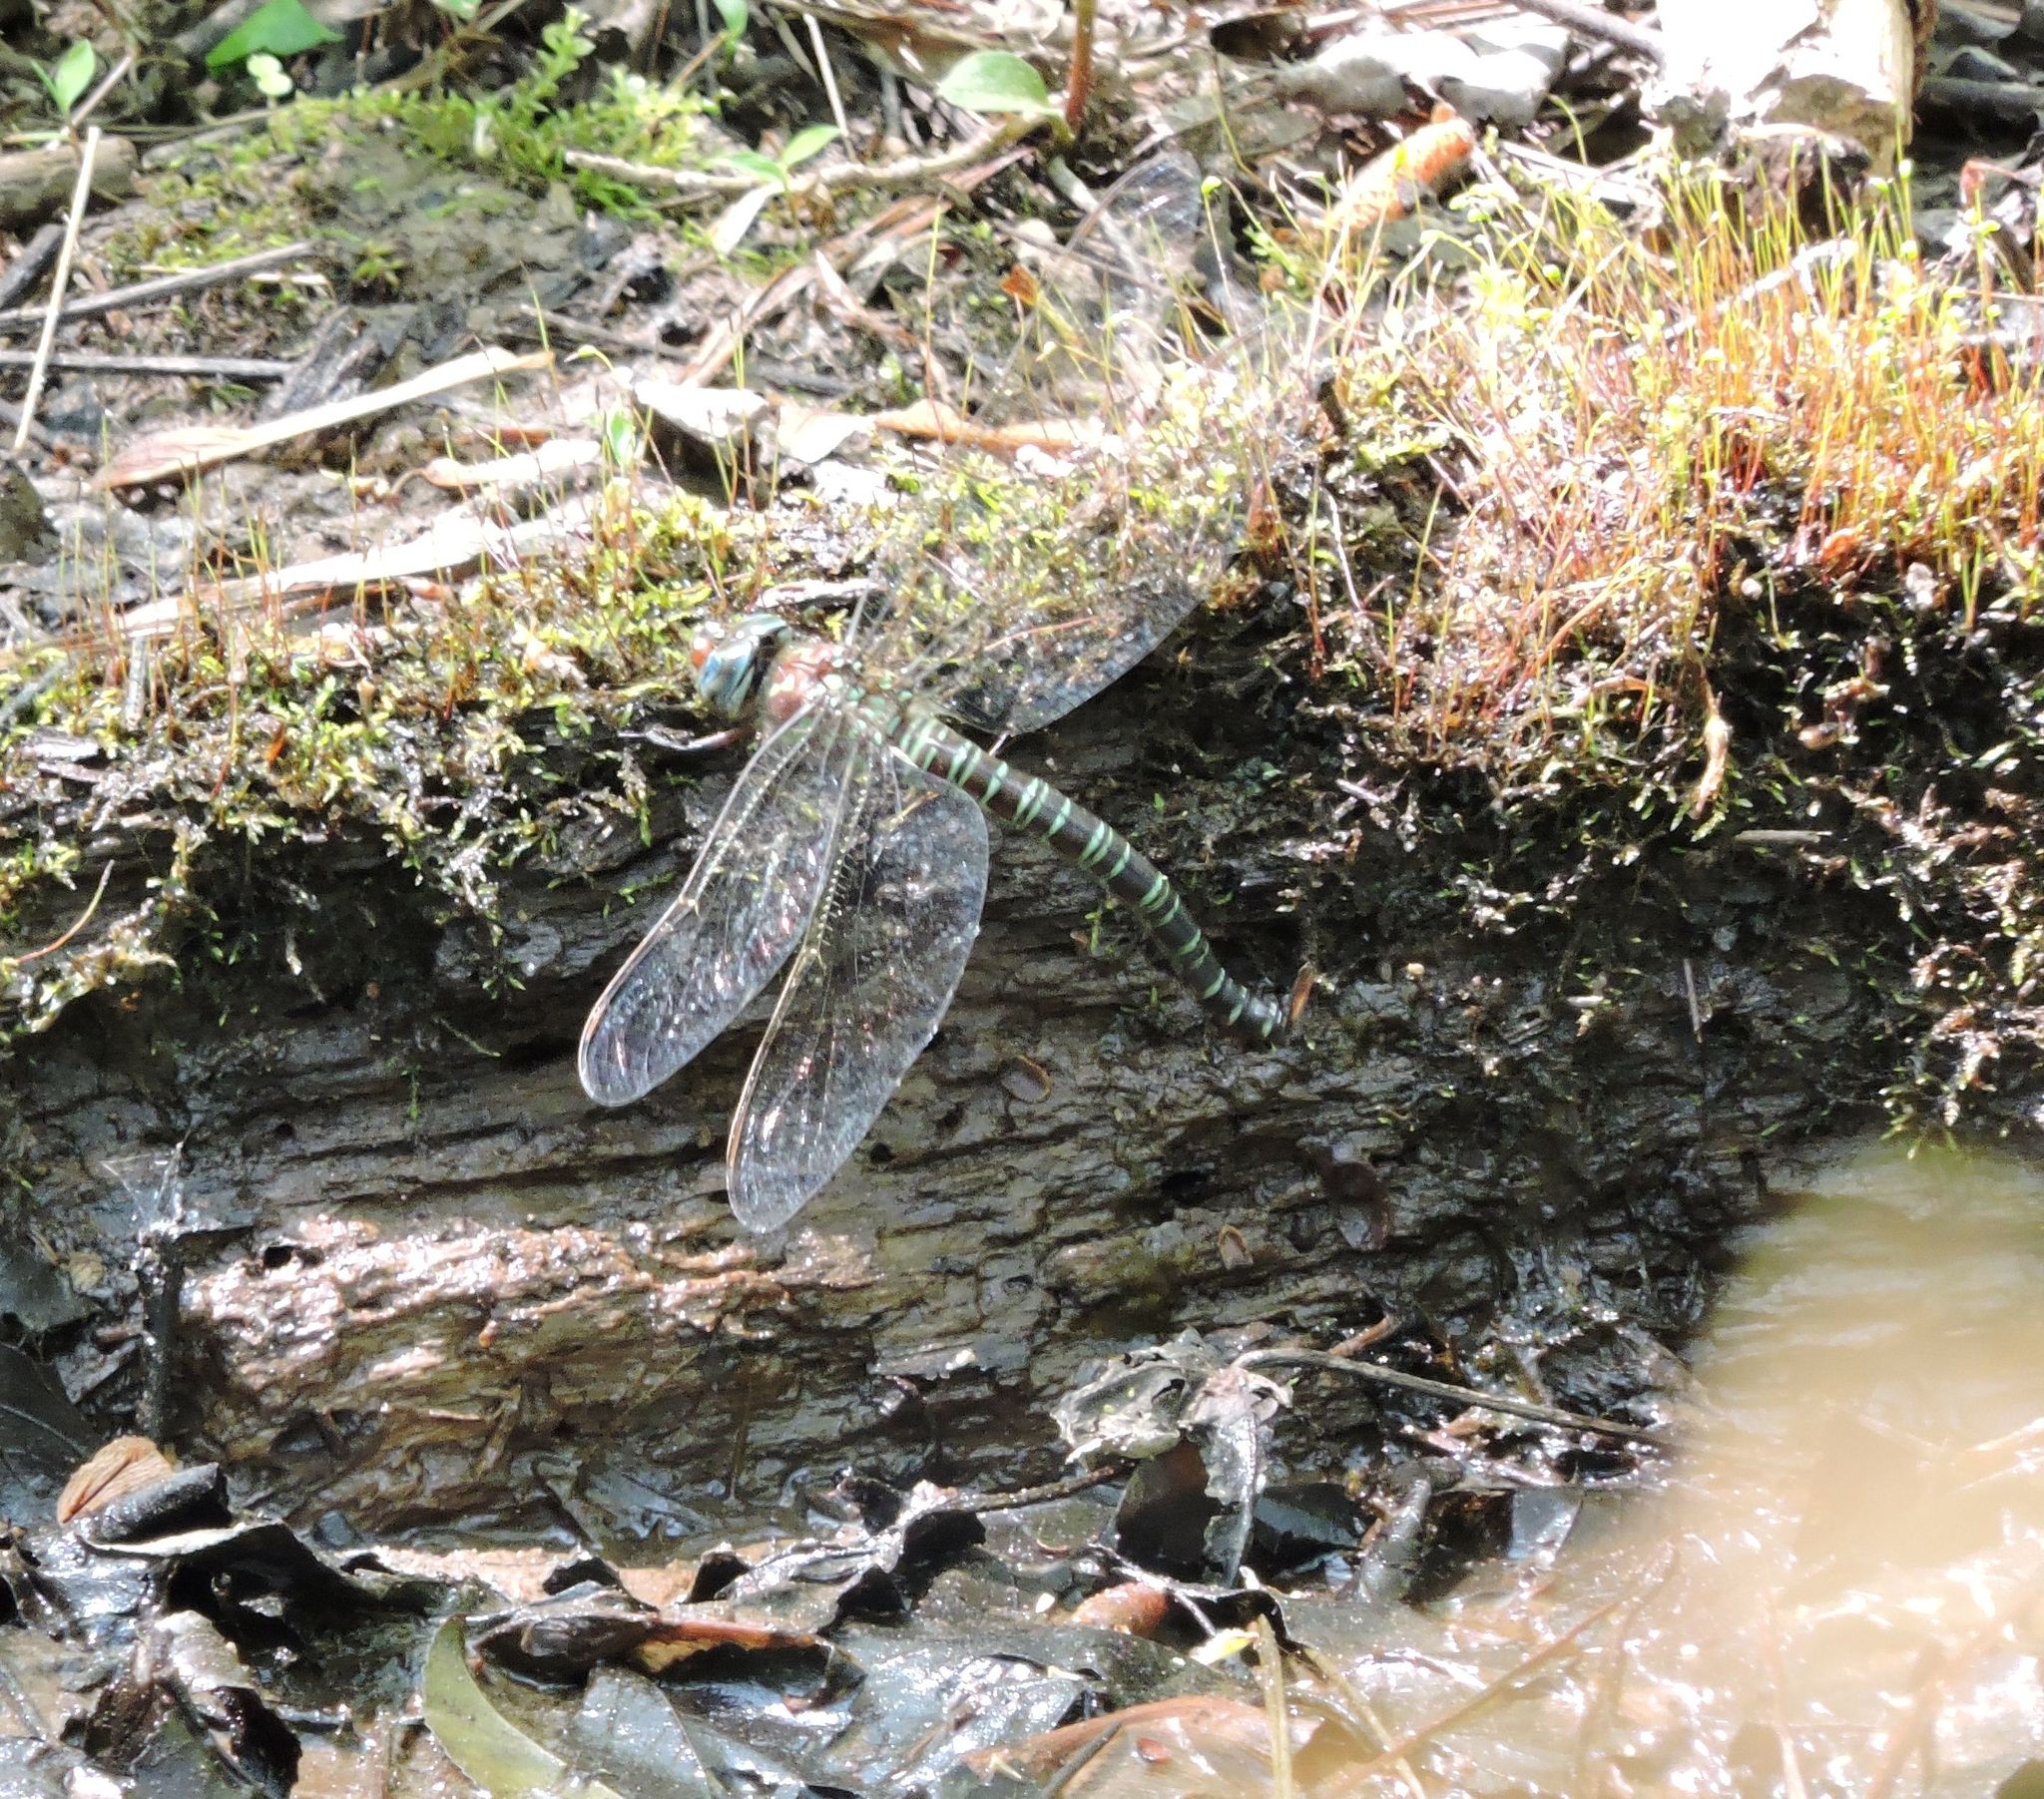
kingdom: Animalia
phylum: Arthropoda
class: Insecta
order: Odonata
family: Aeshnidae
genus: Epiaeschna
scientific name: Epiaeschna heros
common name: Swamp darner
